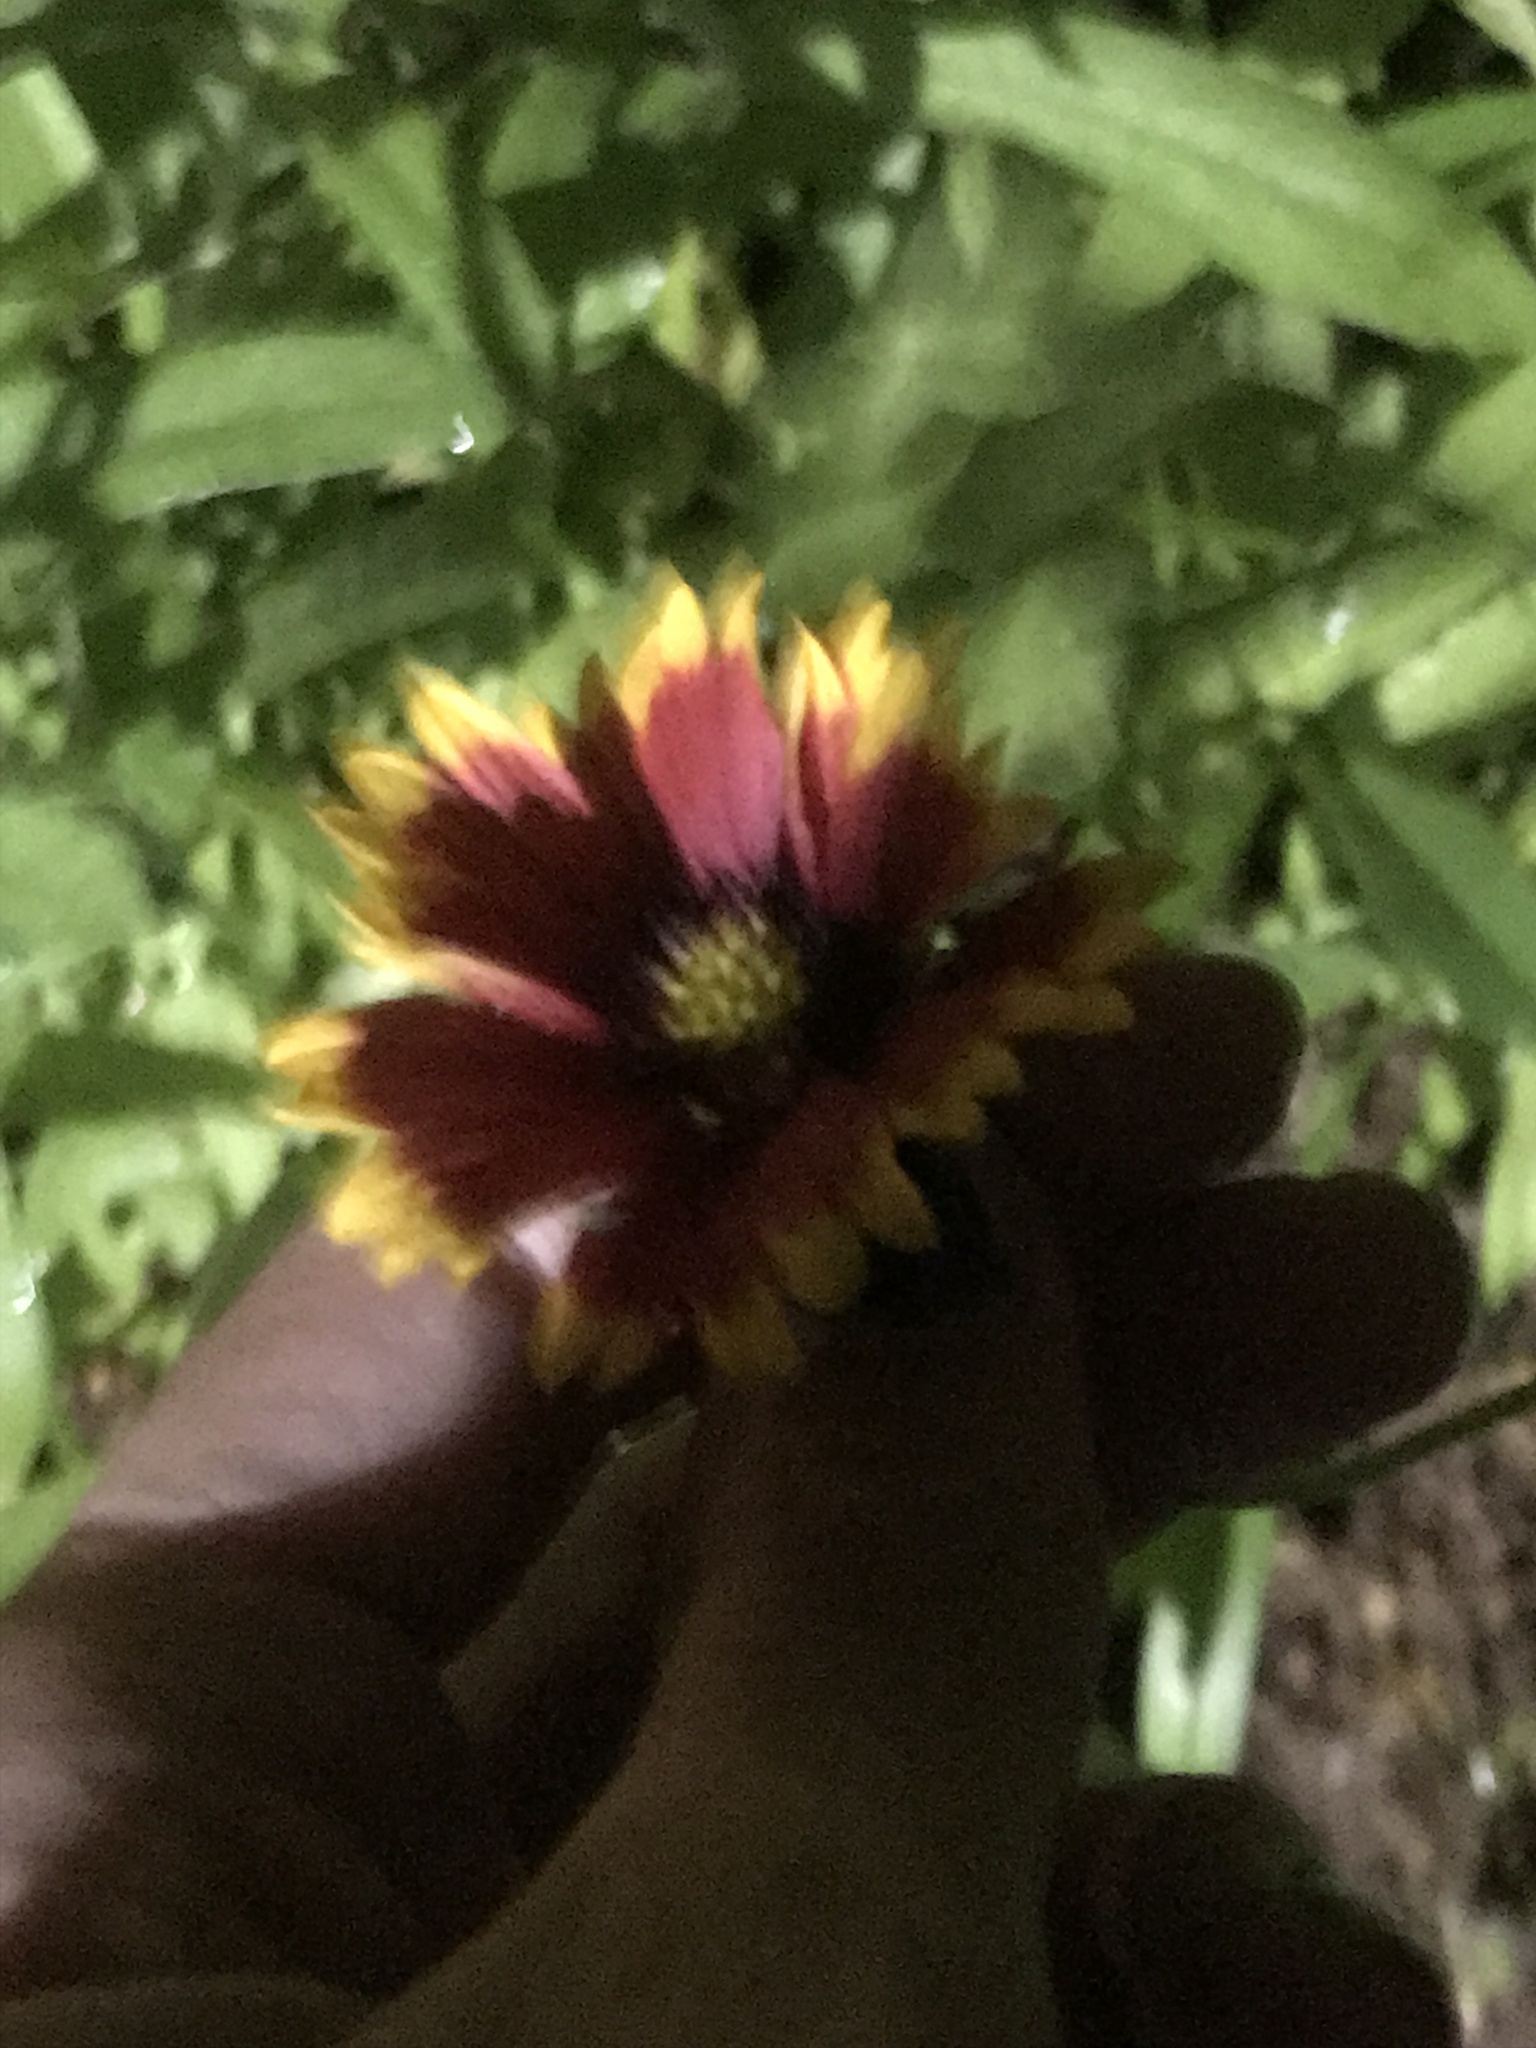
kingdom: Plantae
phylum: Tracheophyta
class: Magnoliopsida
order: Asterales
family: Asteraceae
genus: Gaillardia
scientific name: Gaillardia pulchella
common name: Firewheel
